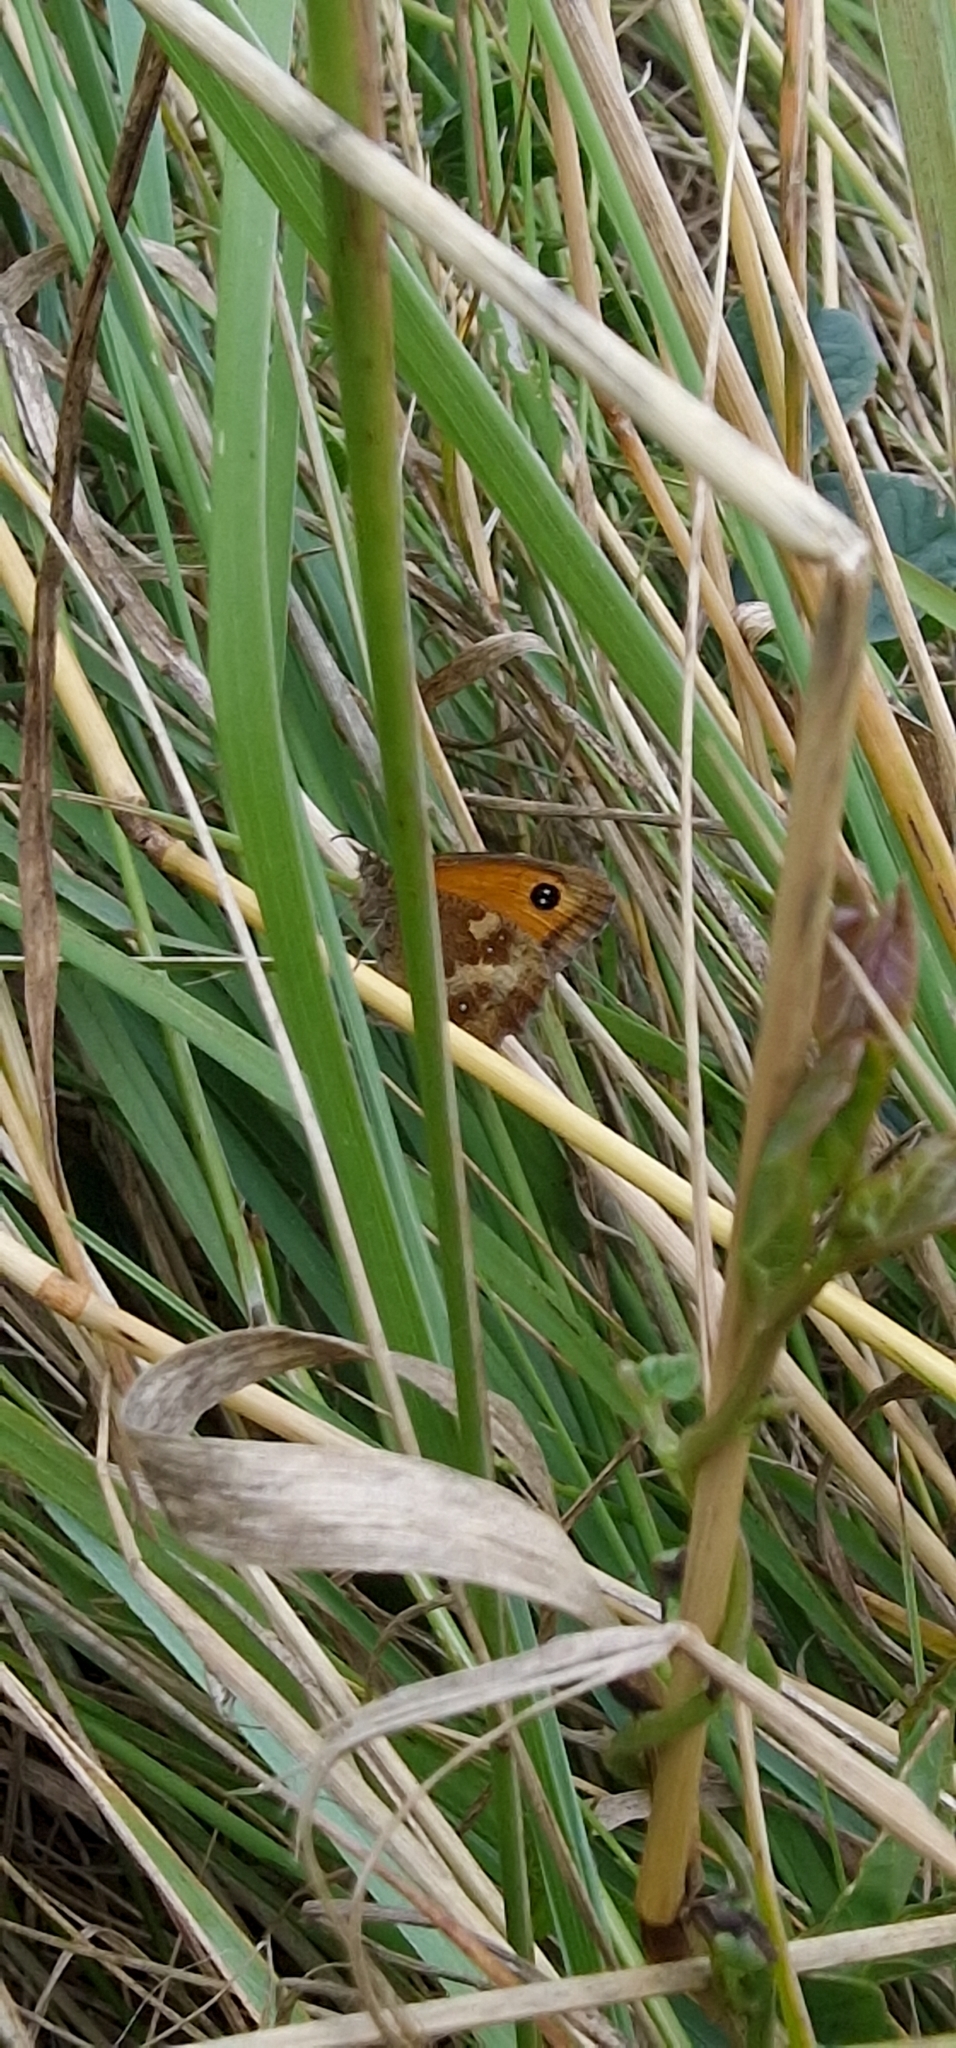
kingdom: Animalia
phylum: Arthropoda
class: Insecta
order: Lepidoptera
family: Nymphalidae
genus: Pyronia
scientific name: Pyronia tithonus
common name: Gatekeeper
